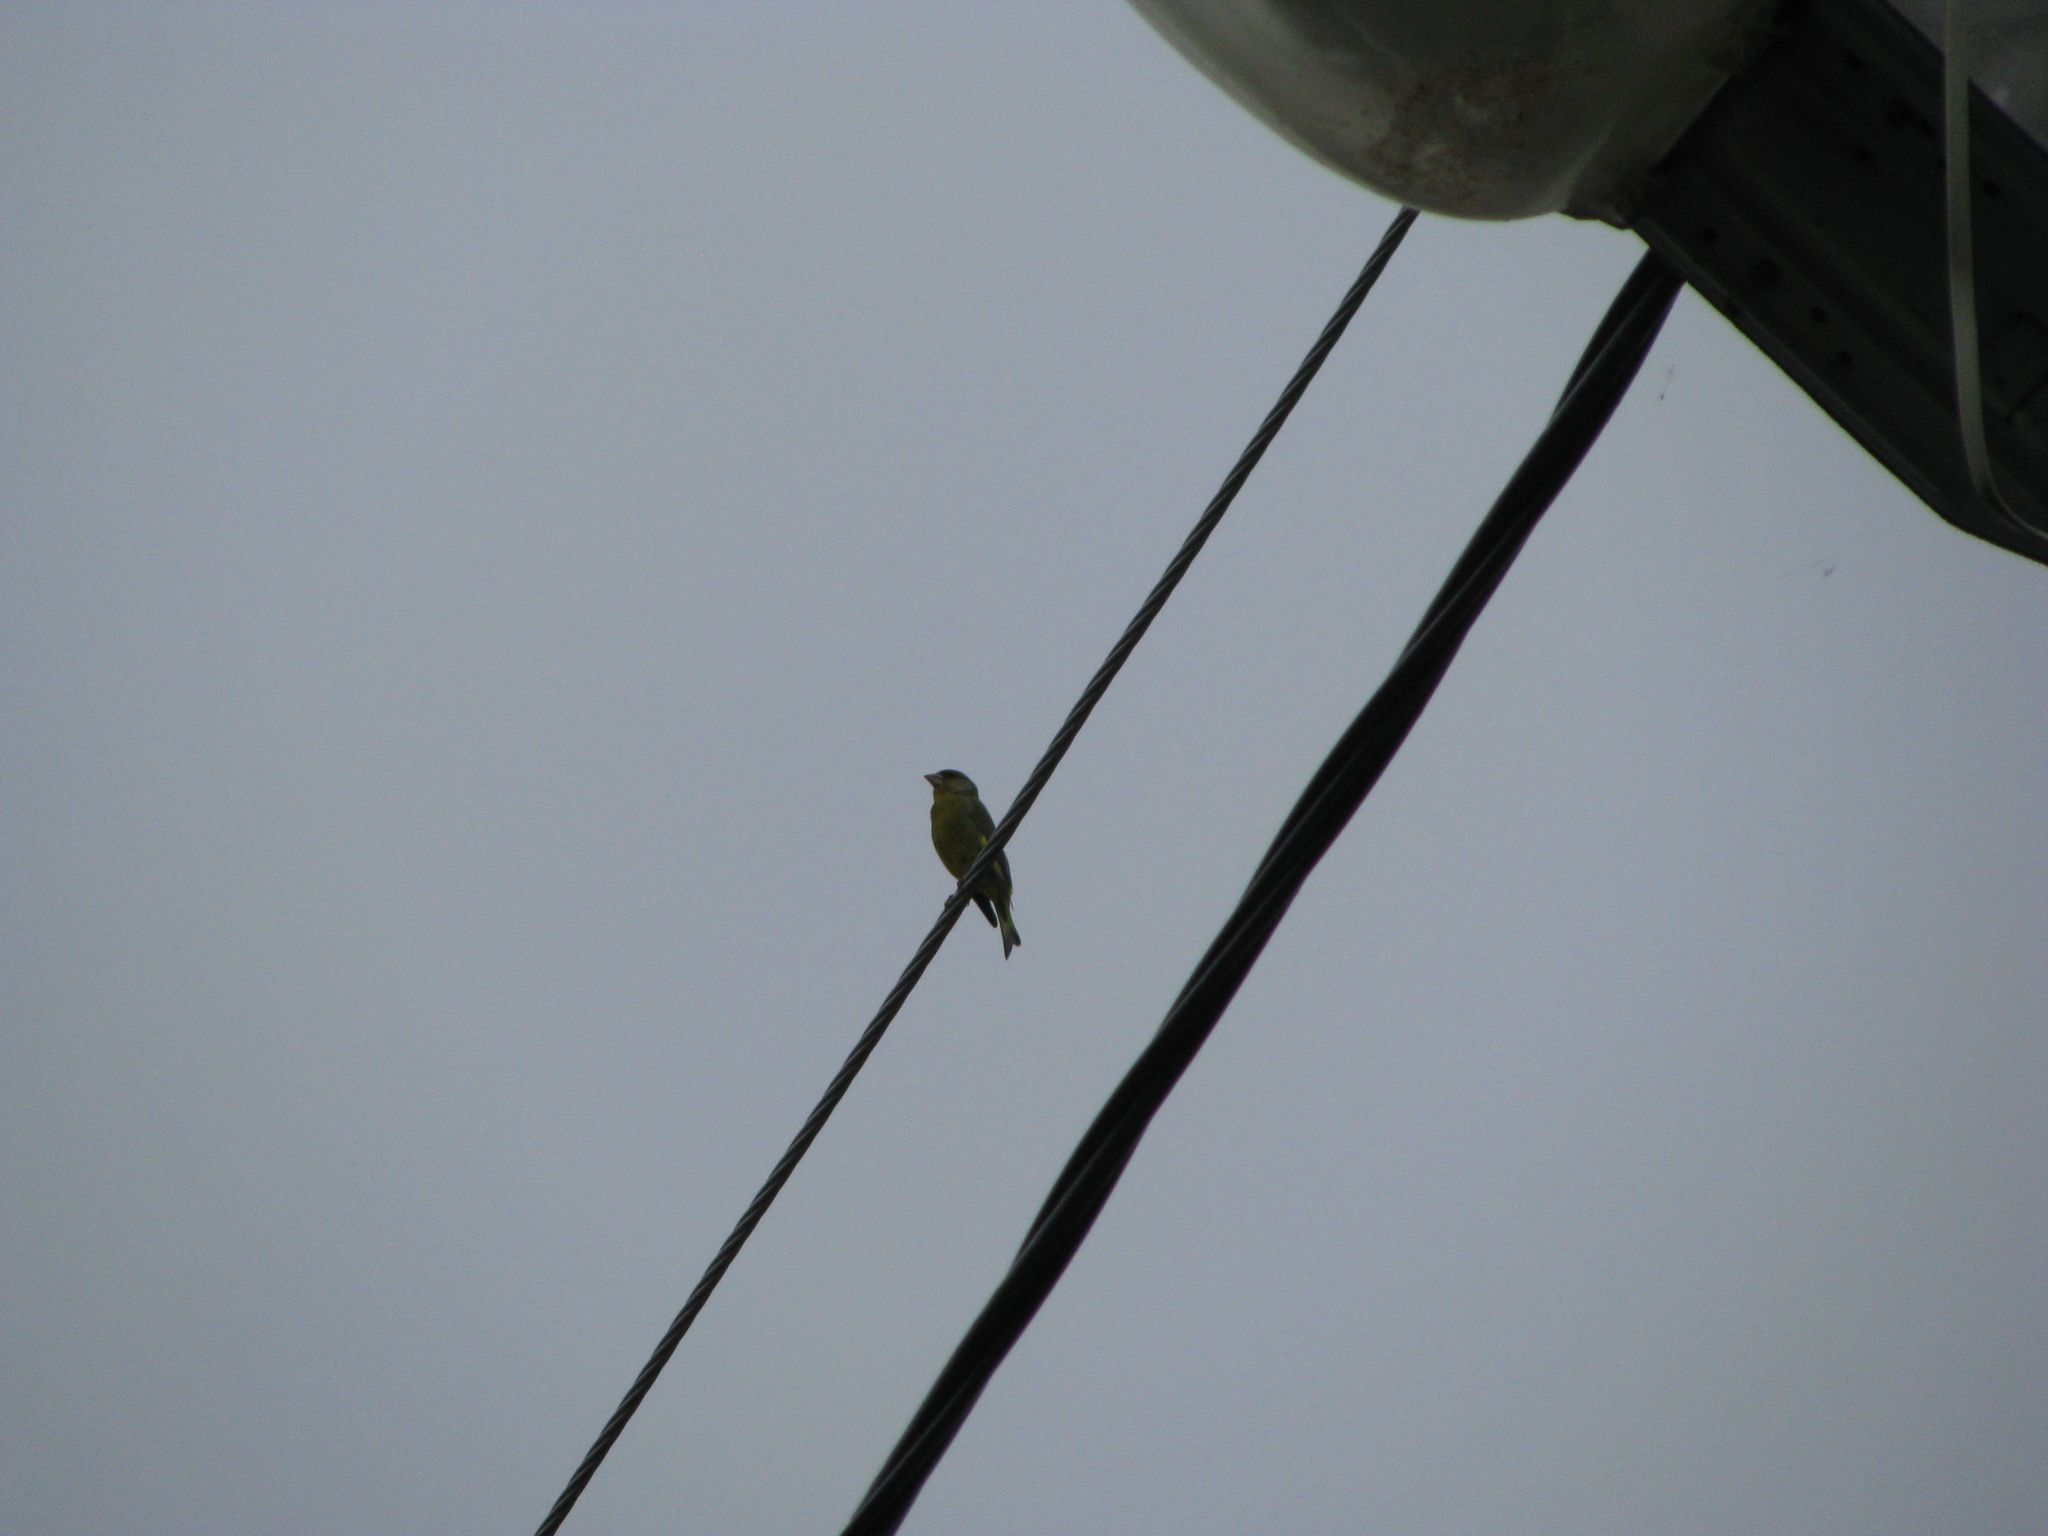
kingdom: Plantae
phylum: Tracheophyta
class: Liliopsida
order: Poales
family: Poaceae
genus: Chloris
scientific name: Chloris chloris
